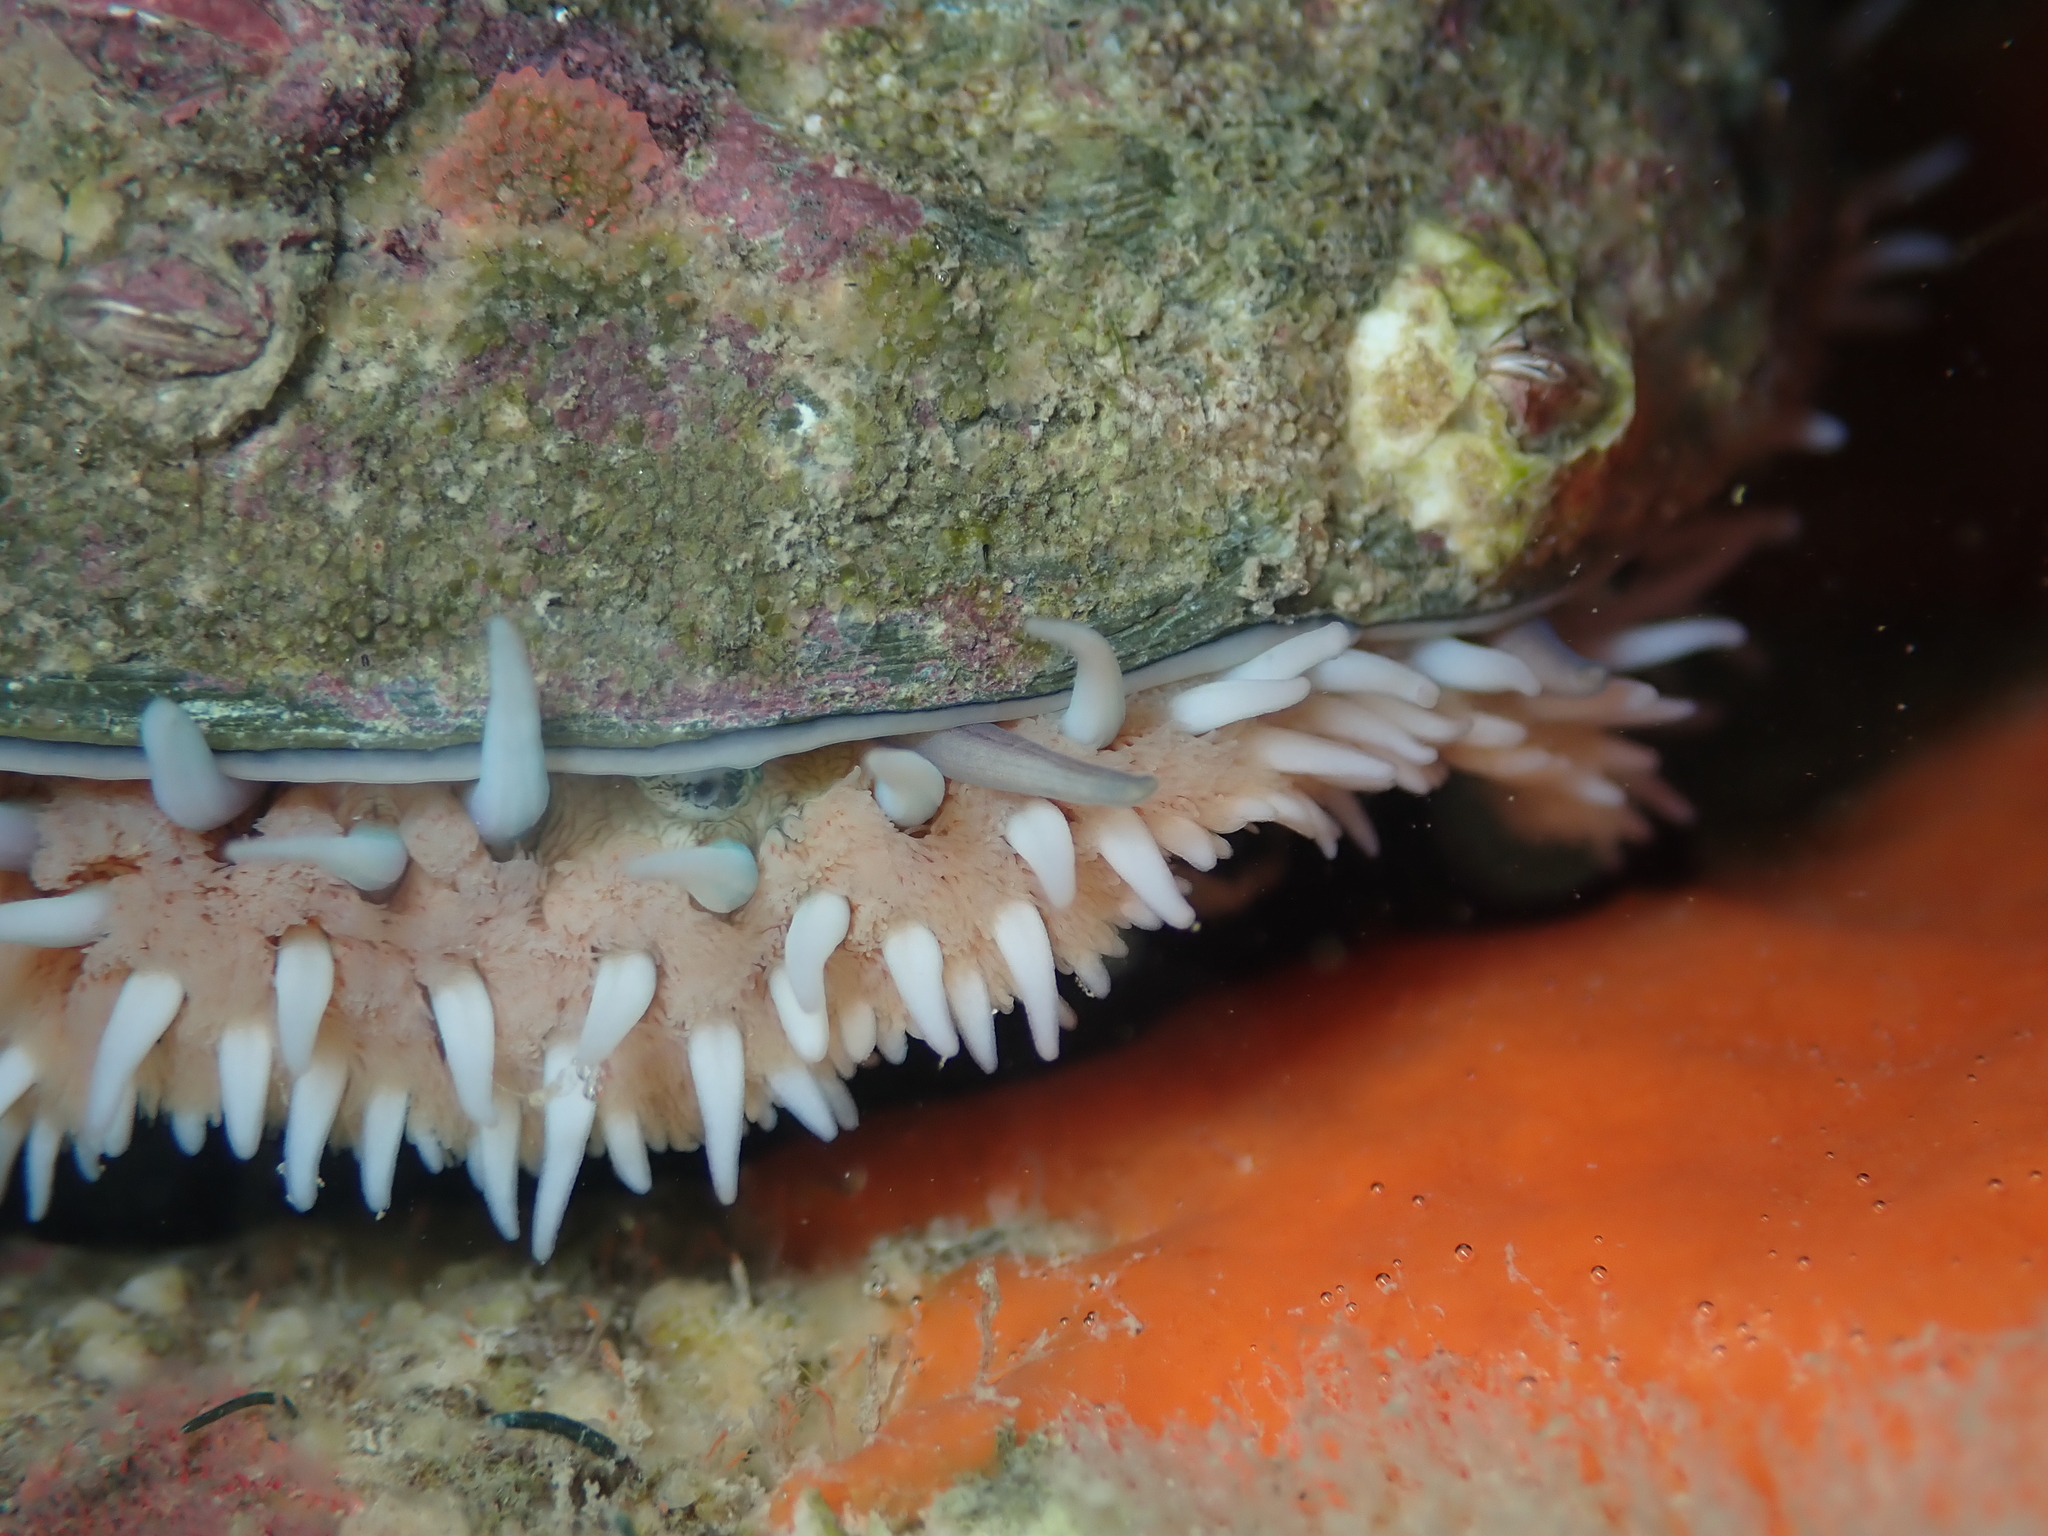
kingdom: Animalia
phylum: Mollusca
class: Gastropoda
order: Lepetellida
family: Haliotidae
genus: Haliotis
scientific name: Haliotis australis
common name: Silver abalone
